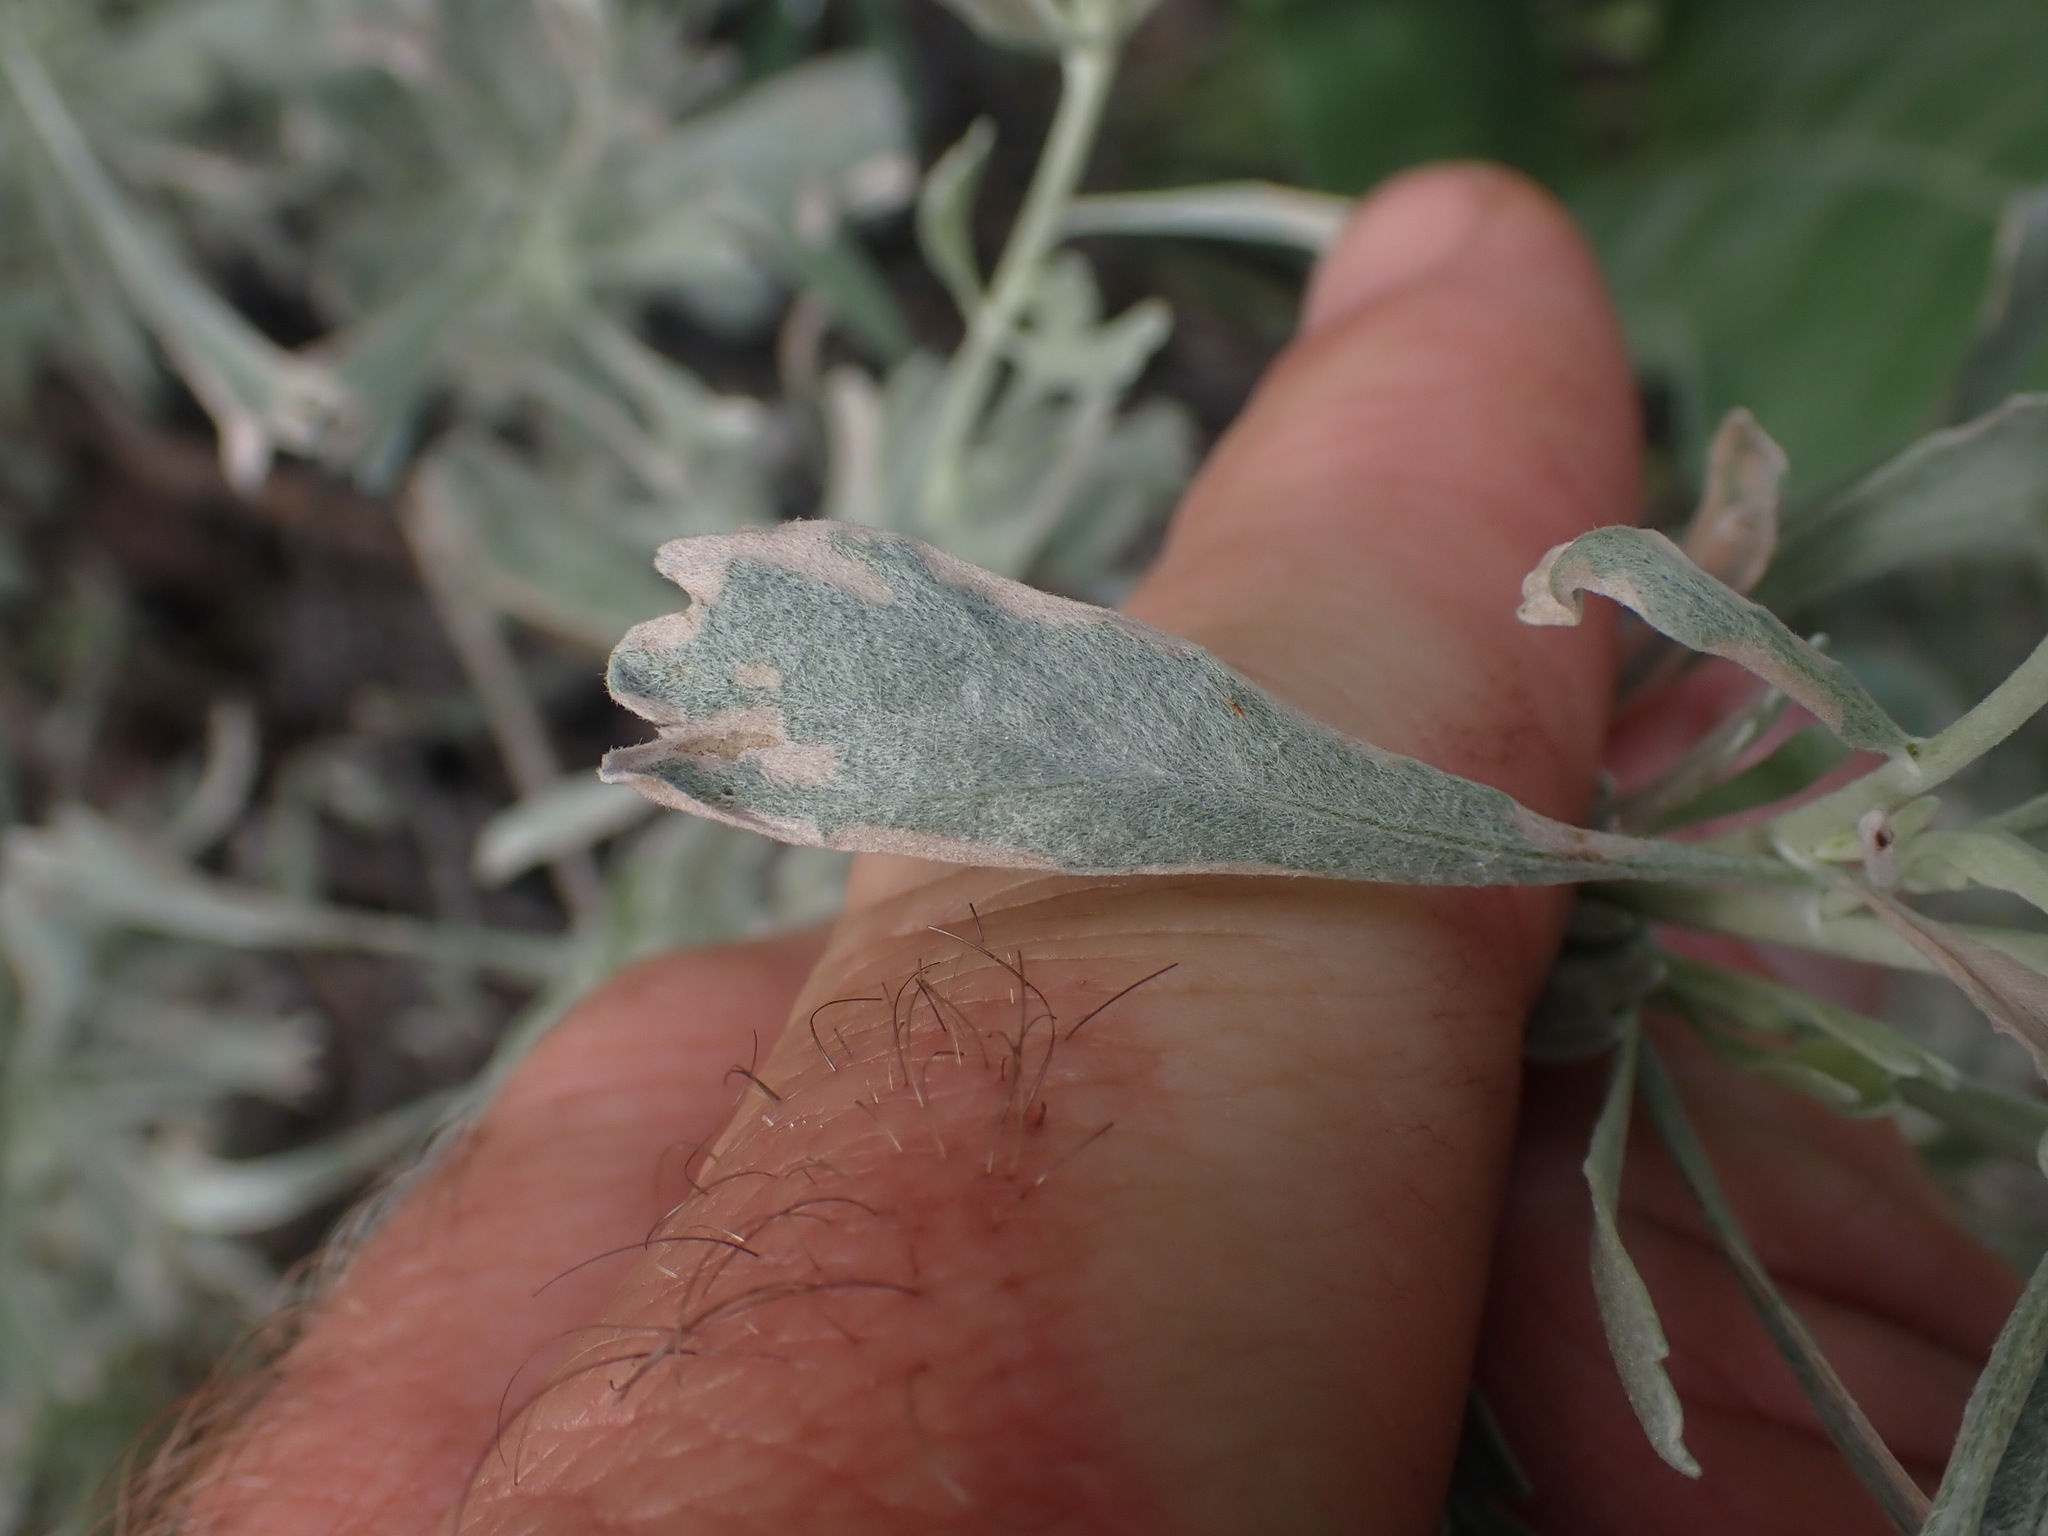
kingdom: Plantae
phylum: Tracheophyta
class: Magnoliopsida
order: Asterales
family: Asteraceae
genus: Artemisia
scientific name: Artemisia tridentata
